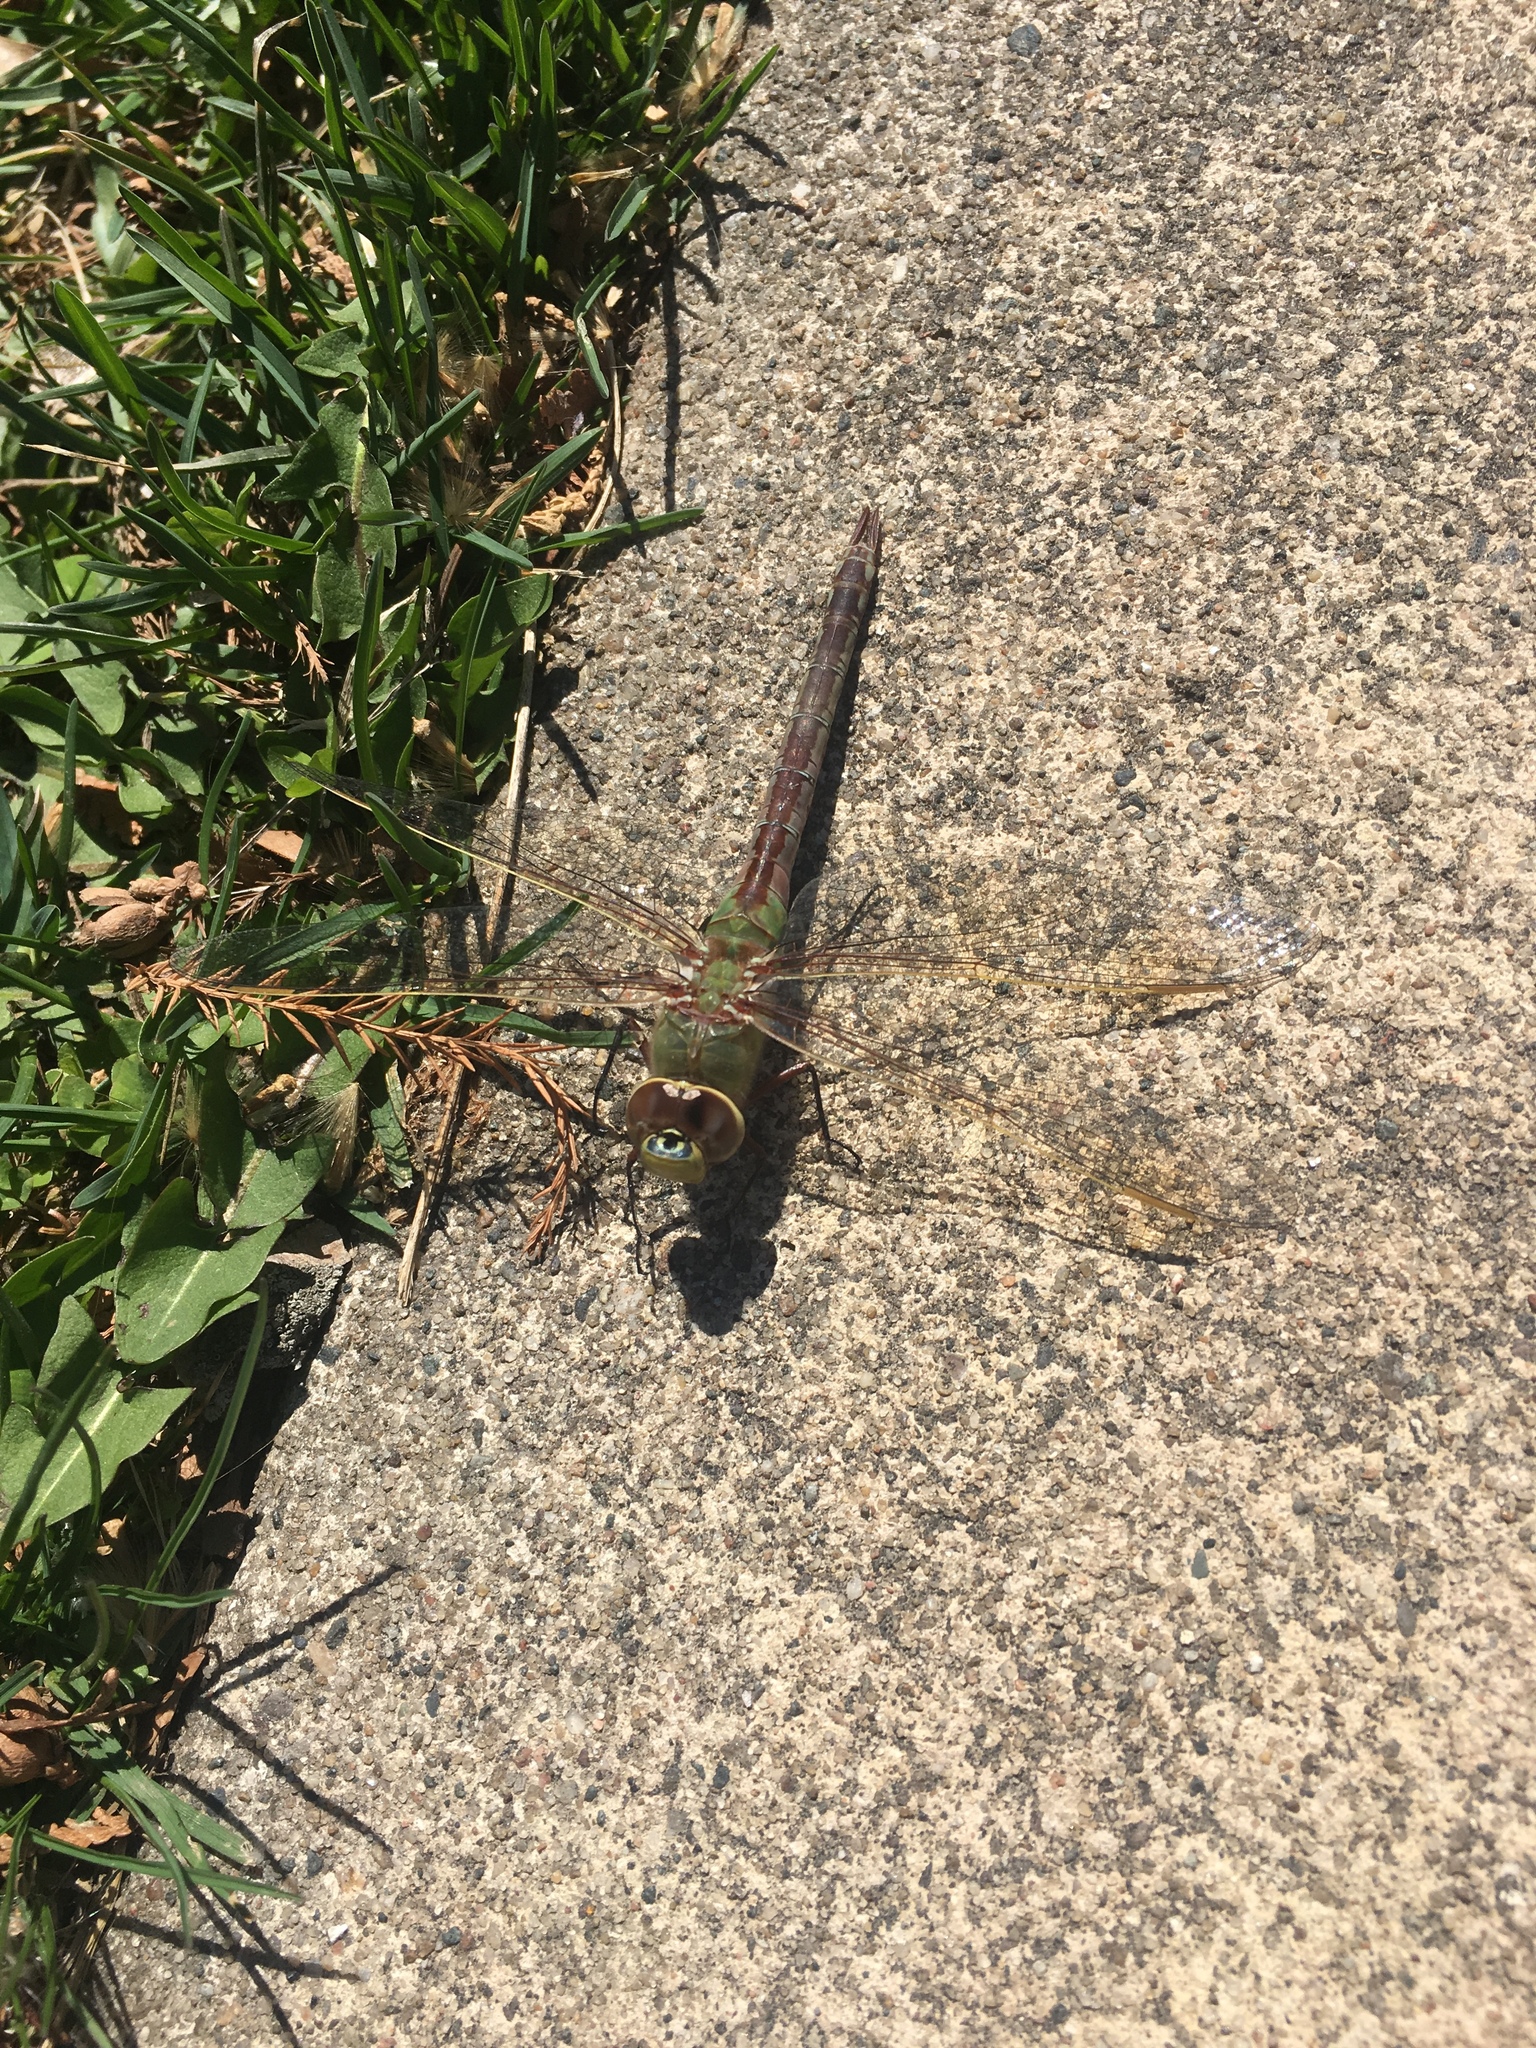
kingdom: Animalia
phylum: Arthropoda
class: Insecta
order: Odonata
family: Aeshnidae
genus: Anax
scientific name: Anax junius
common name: Common green darner
